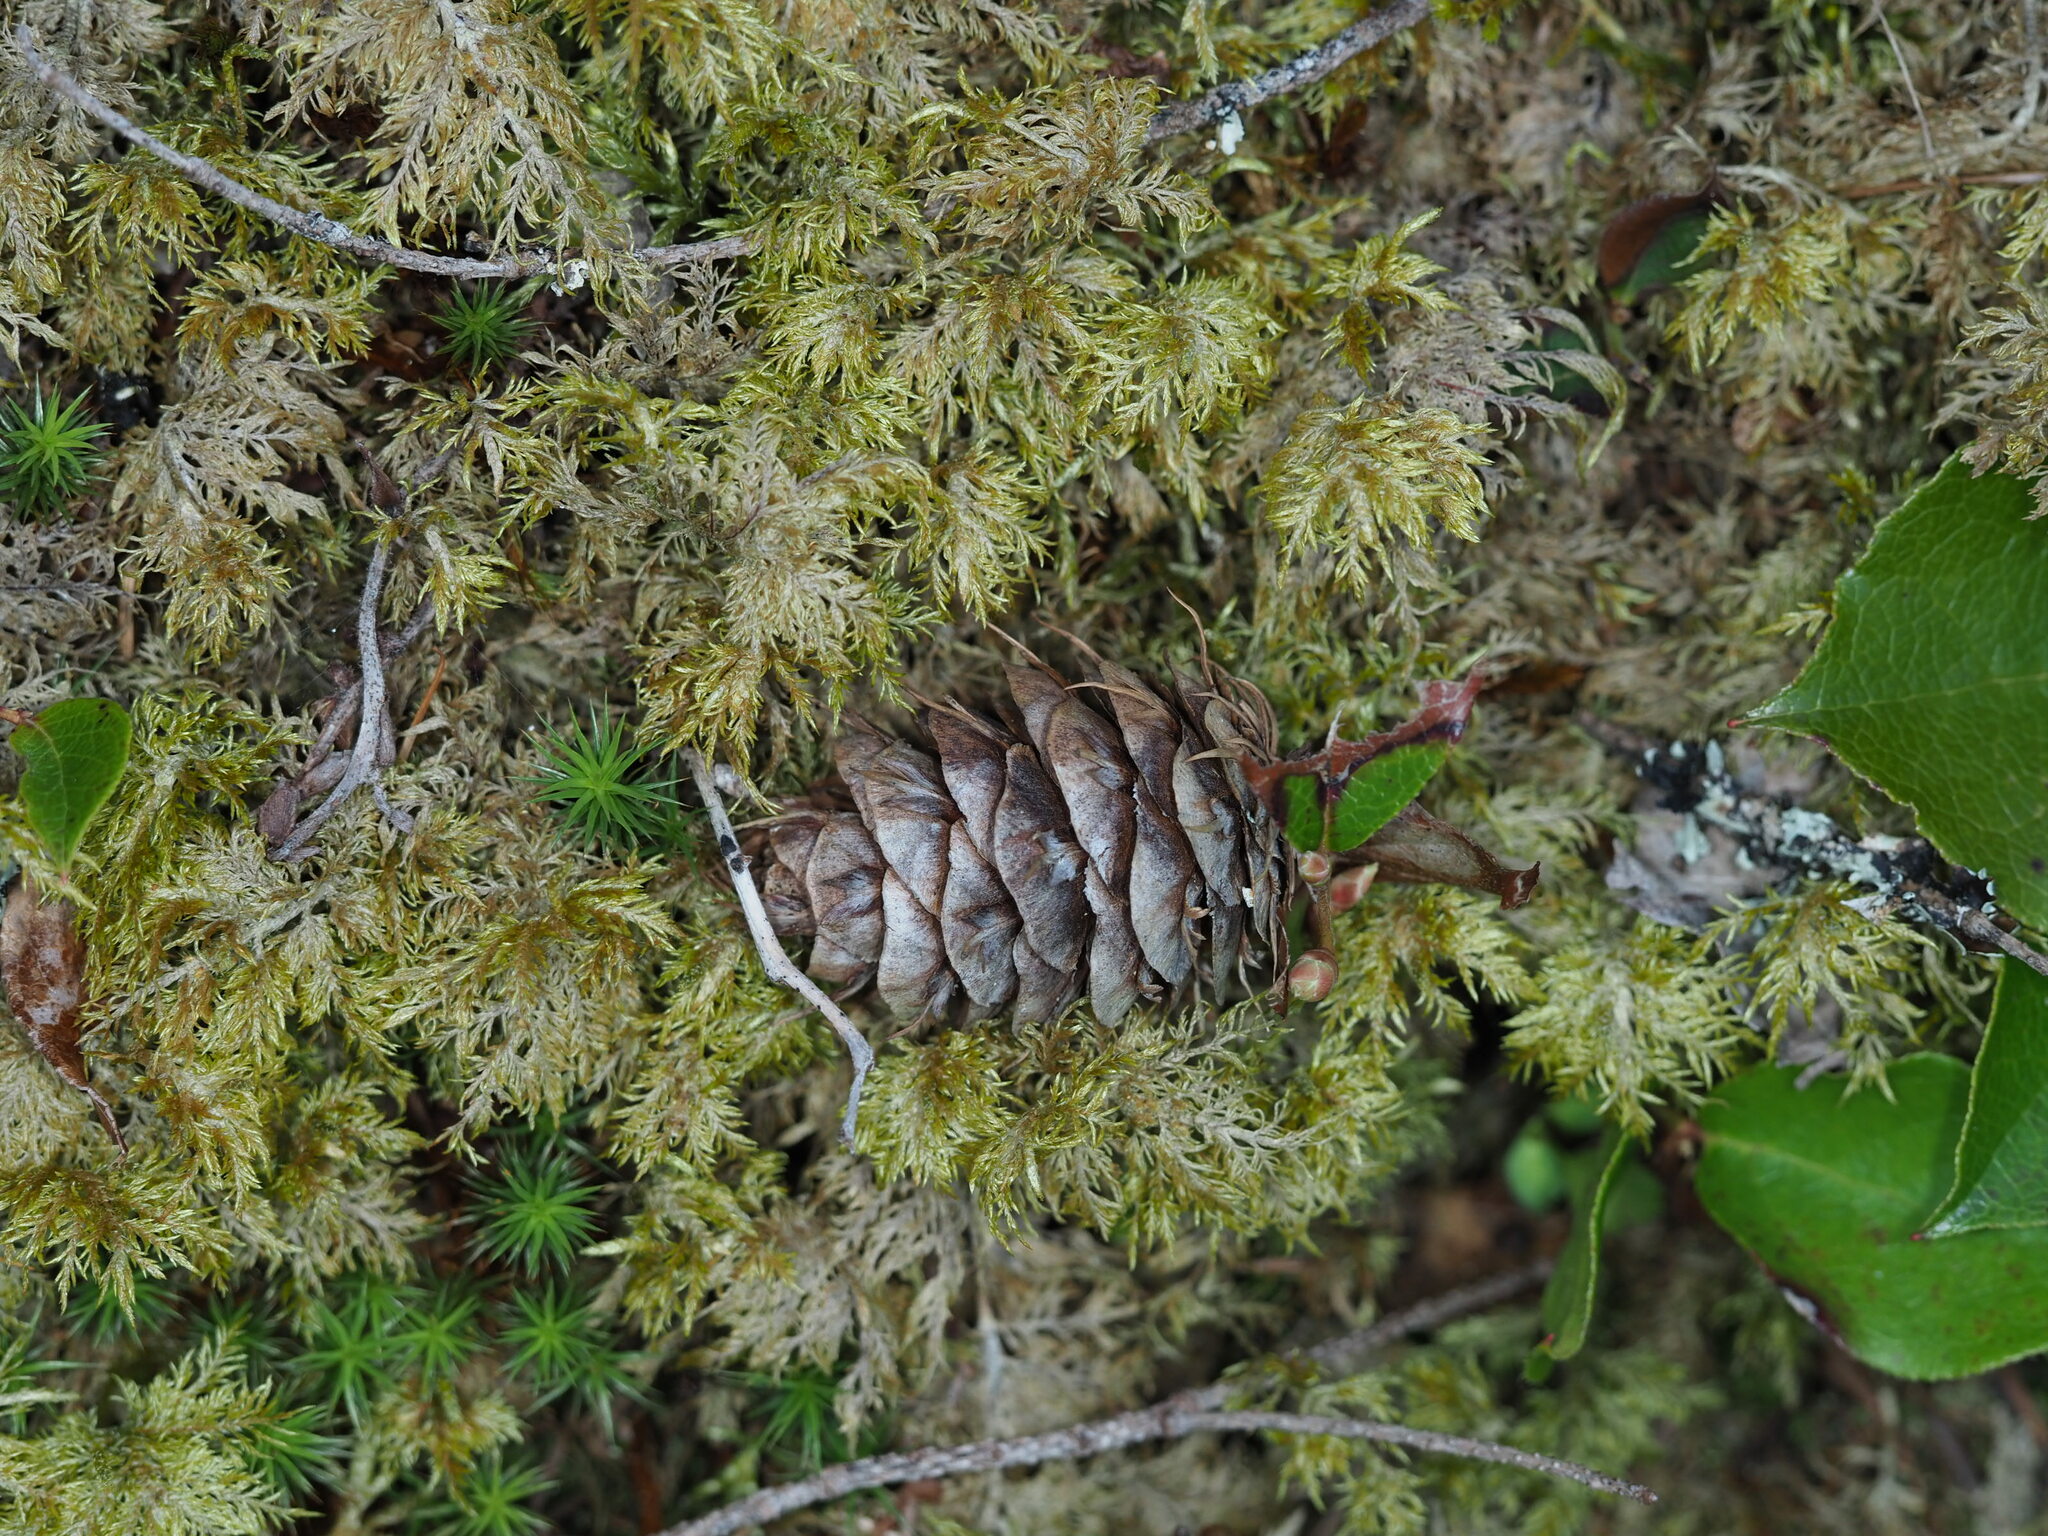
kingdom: Plantae
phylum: Tracheophyta
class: Pinopsida
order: Pinales
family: Pinaceae
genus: Pseudotsuga
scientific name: Pseudotsuga menziesii
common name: Douglas fir
